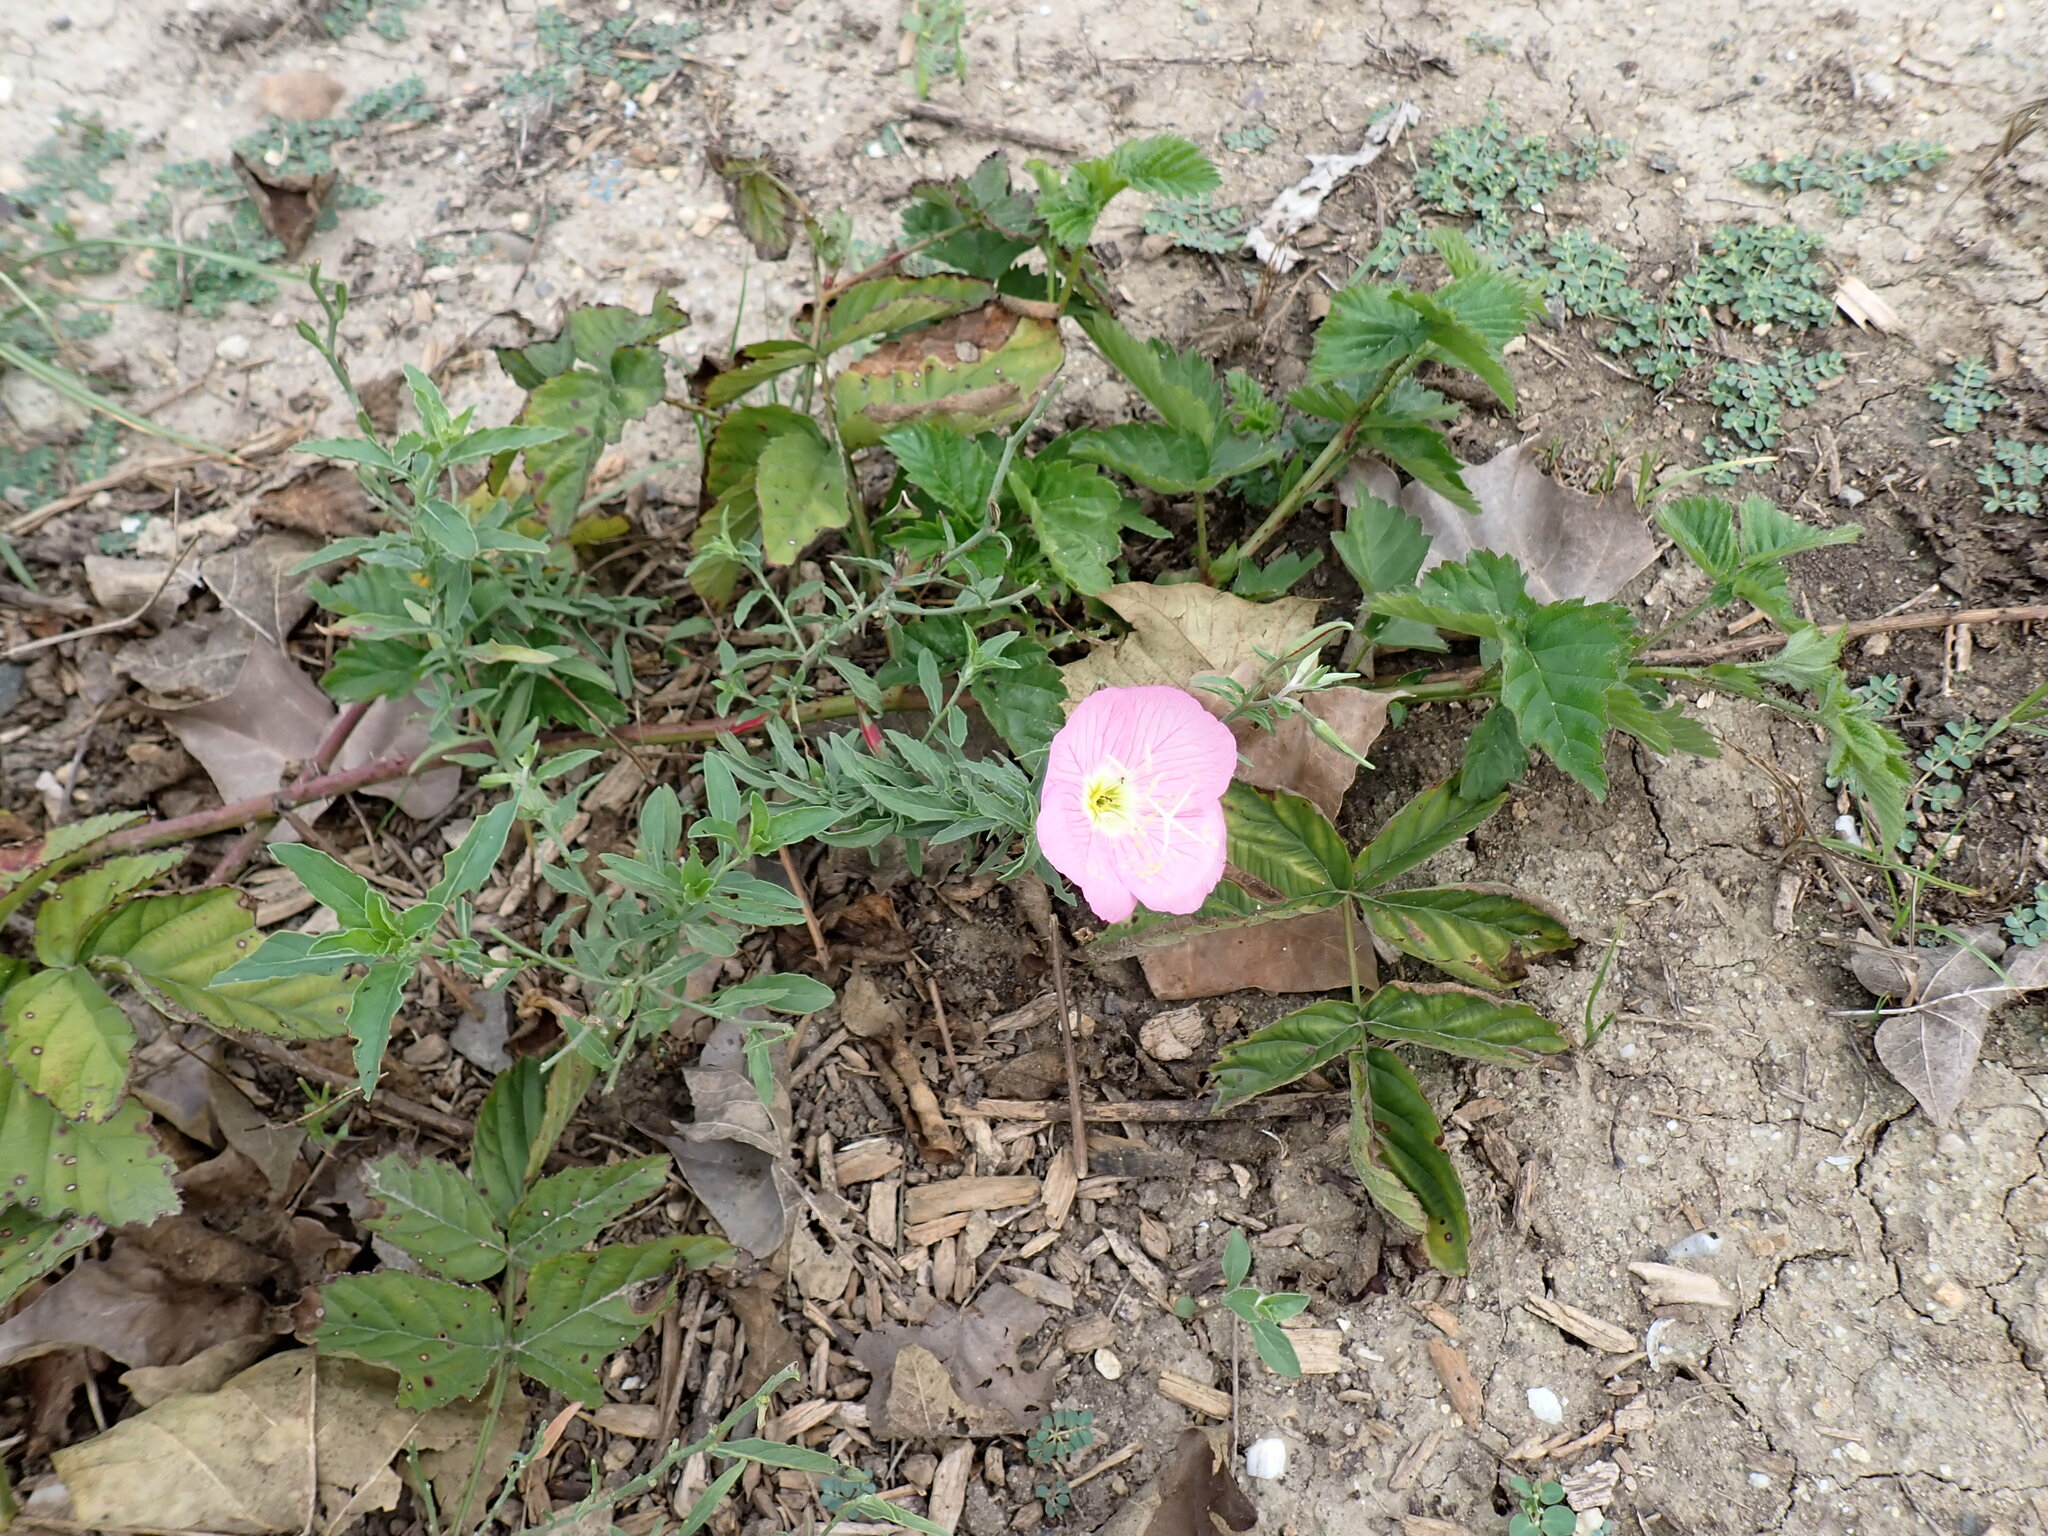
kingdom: Plantae
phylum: Tracheophyta
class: Magnoliopsida
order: Myrtales
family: Onagraceae
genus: Oenothera
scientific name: Oenothera speciosa
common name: White evening-primrose
